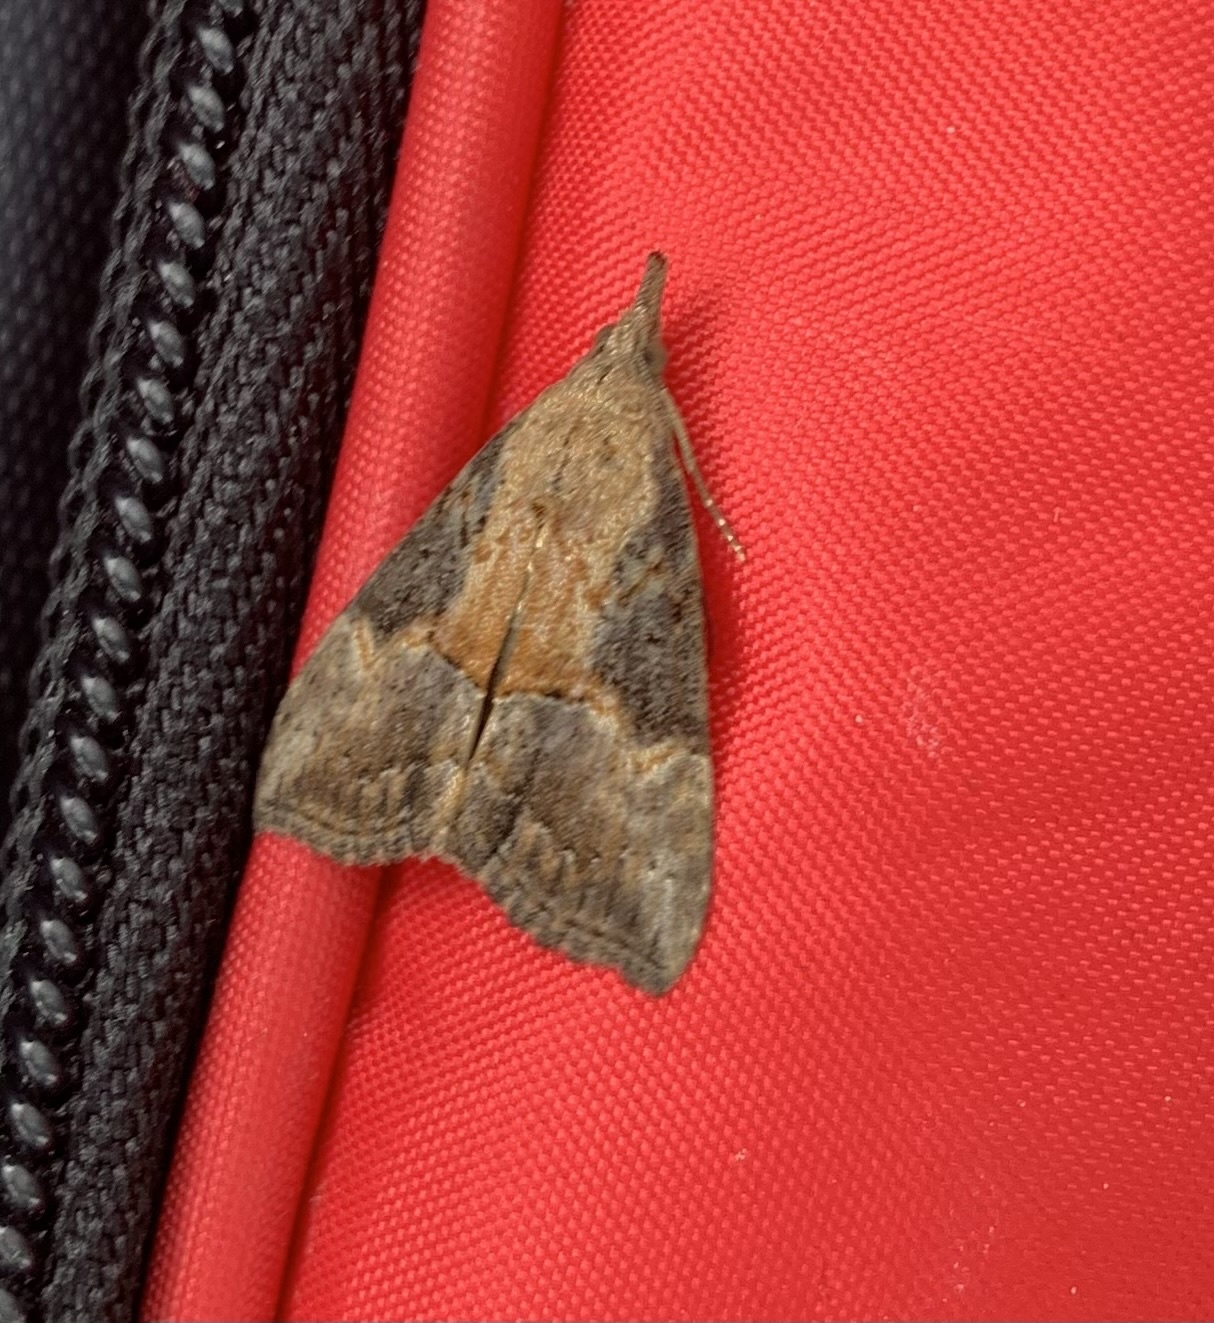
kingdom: Animalia
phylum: Arthropoda
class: Insecta
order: Lepidoptera
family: Erebidae
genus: Hypena
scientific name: Hypena scabra
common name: Green cloverworm
